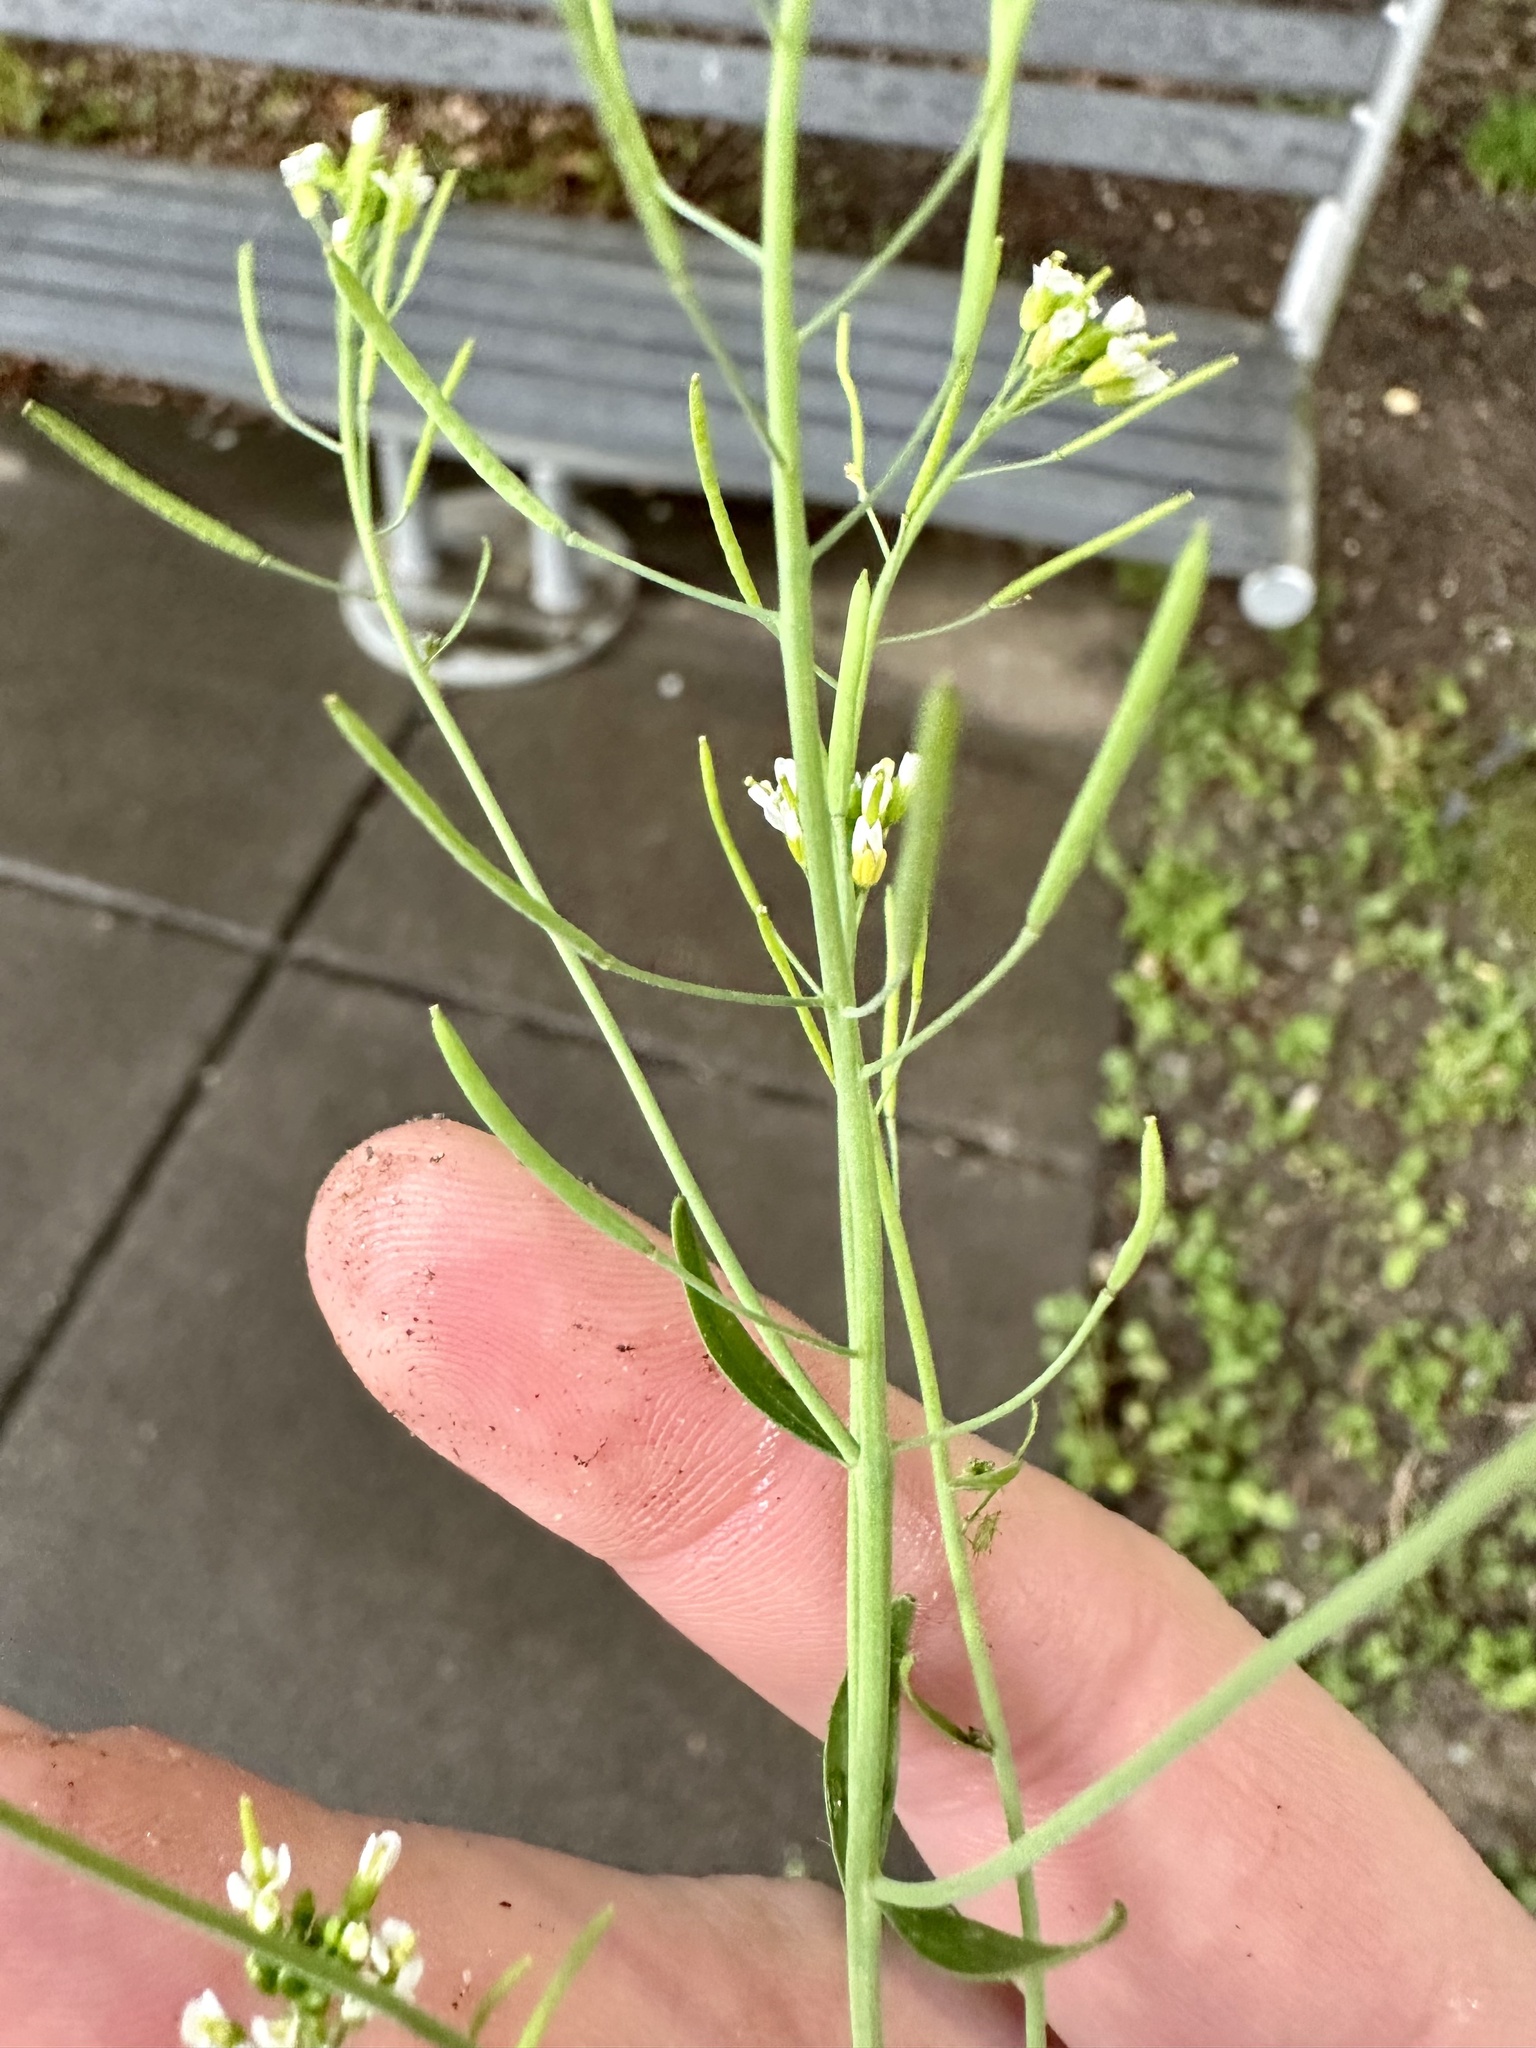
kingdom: Plantae
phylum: Tracheophyta
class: Magnoliopsida
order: Brassicales
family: Brassicaceae
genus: Arabidopsis
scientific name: Arabidopsis thaliana
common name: Thale cress
